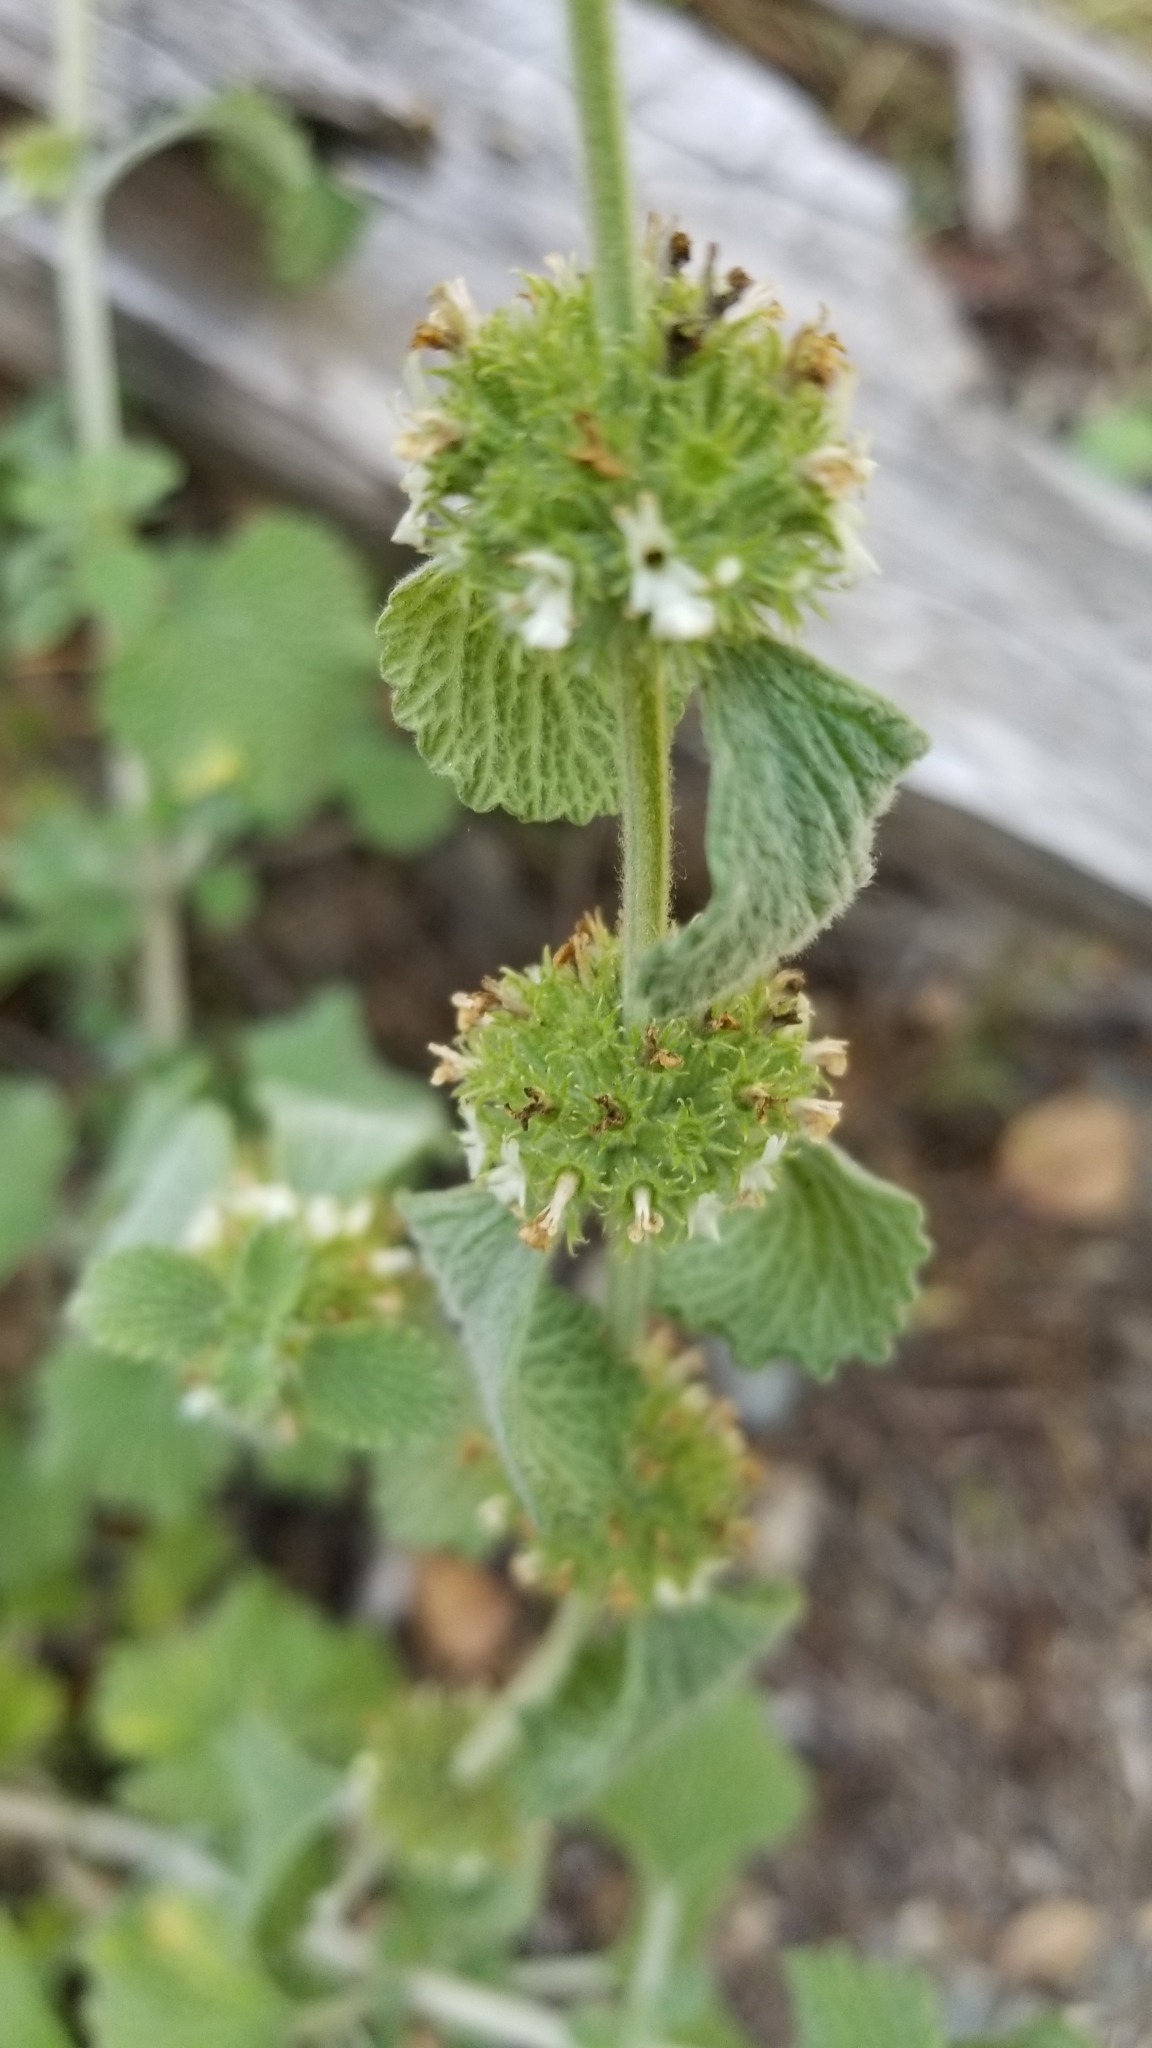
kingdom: Plantae
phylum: Tracheophyta
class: Magnoliopsida
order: Lamiales
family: Lamiaceae
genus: Marrubium
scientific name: Marrubium vulgare
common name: Horehound
